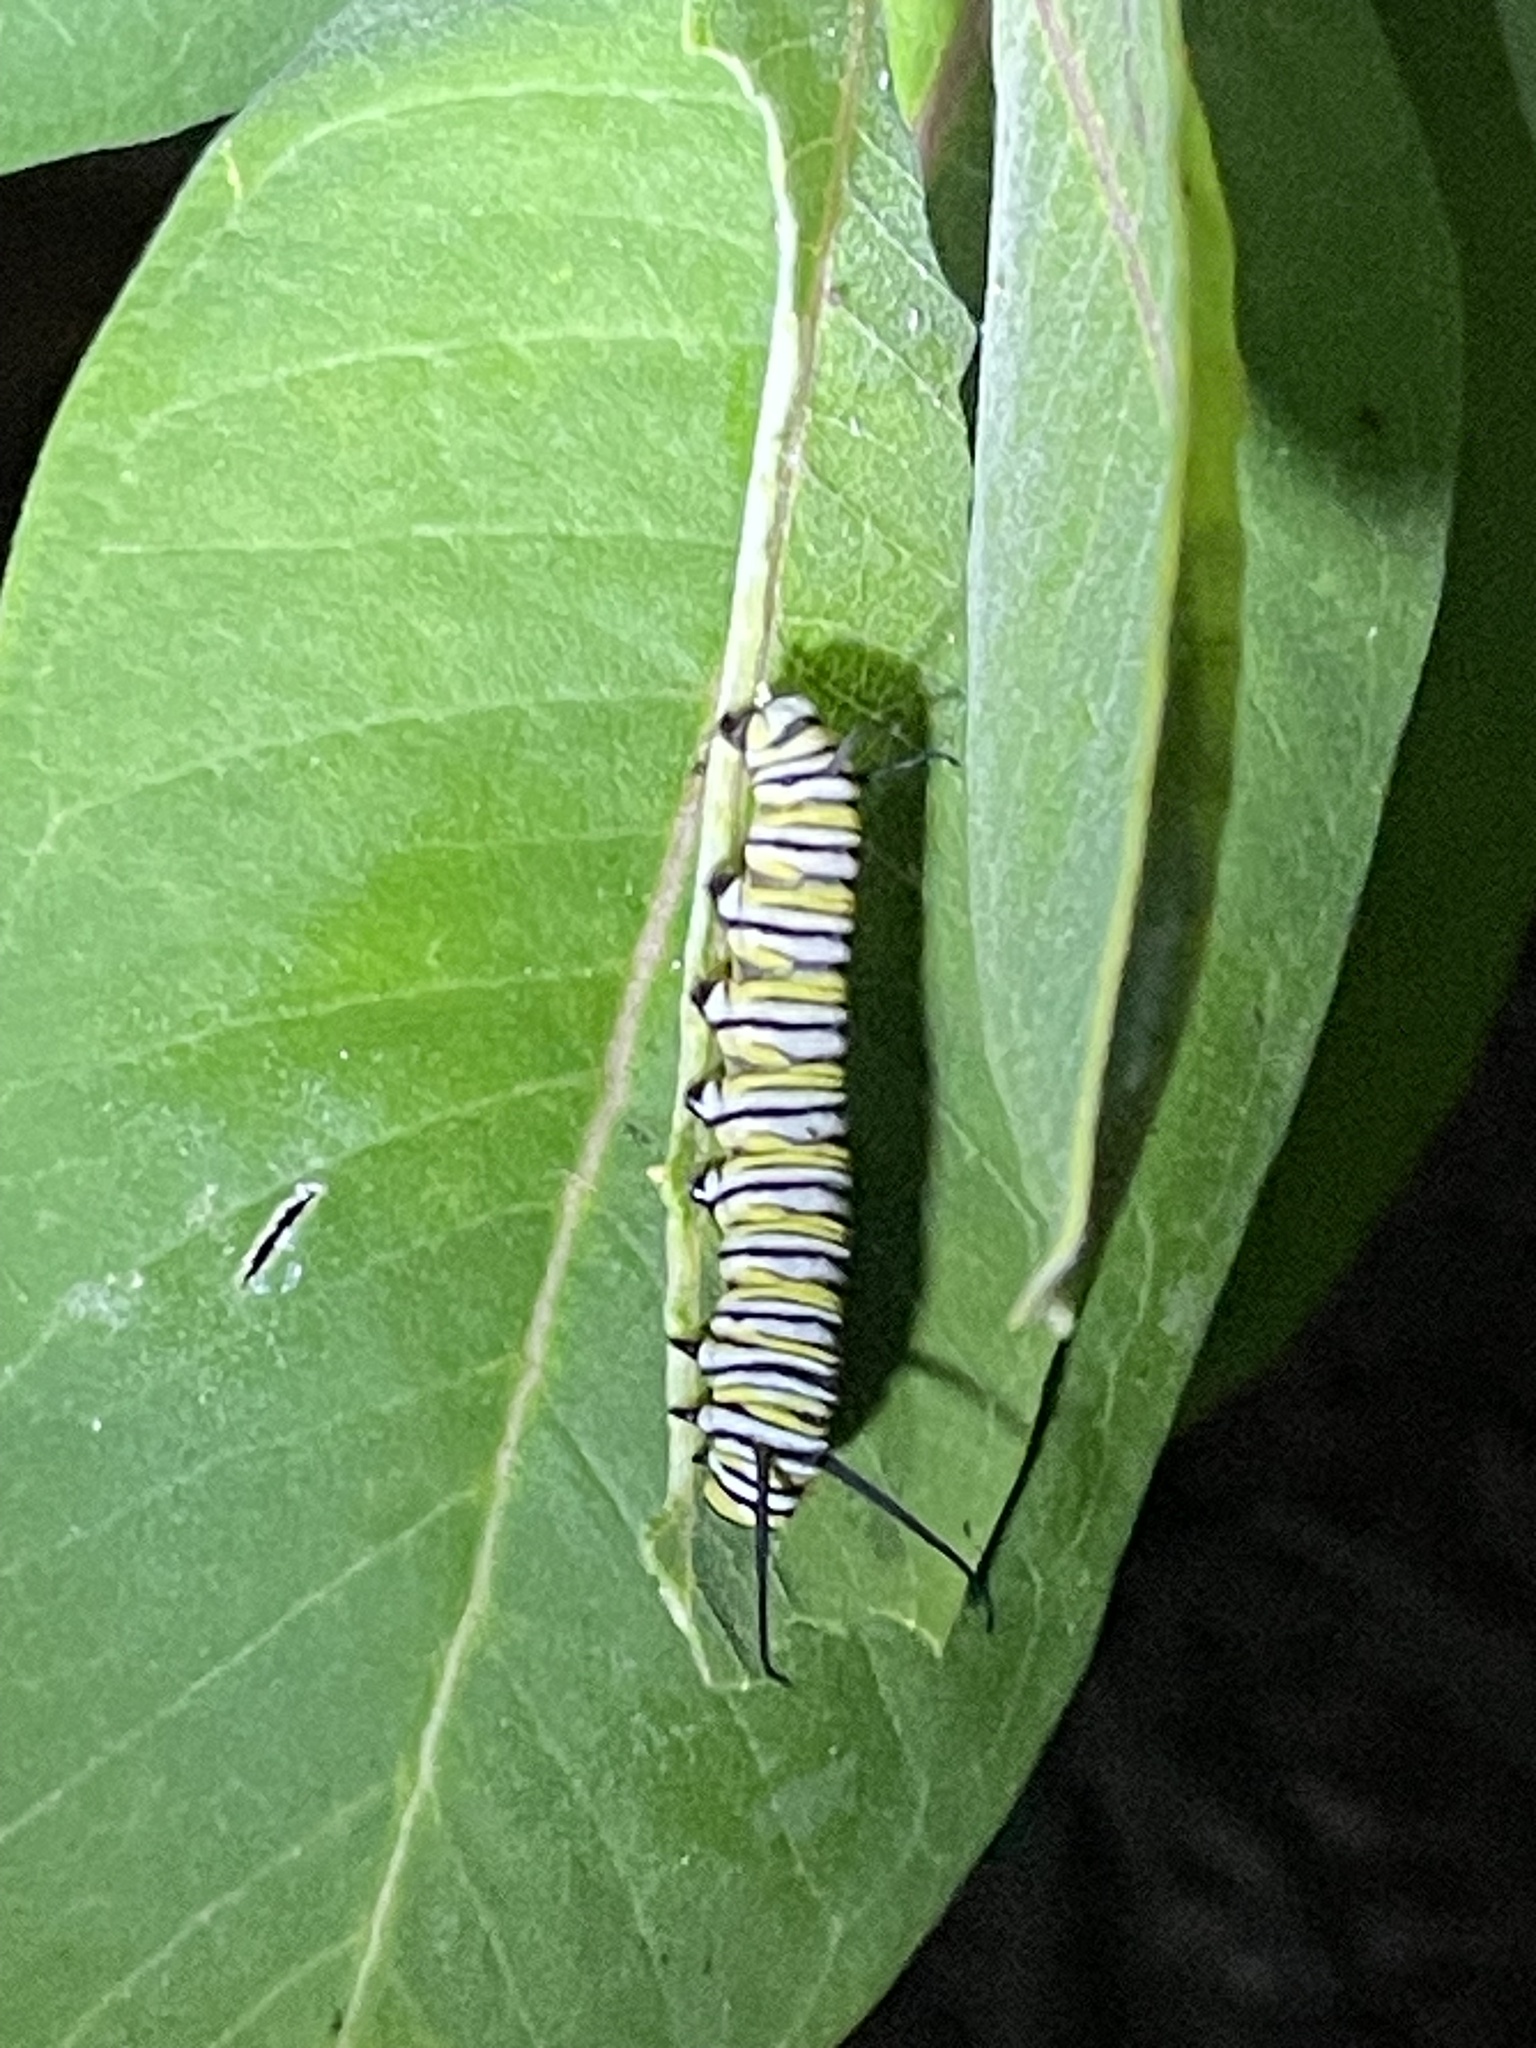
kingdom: Animalia
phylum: Arthropoda
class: Insecta
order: Lepidoptera
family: Nymphalidae
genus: Danaus
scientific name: Danaus plexippus
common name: Monarch
